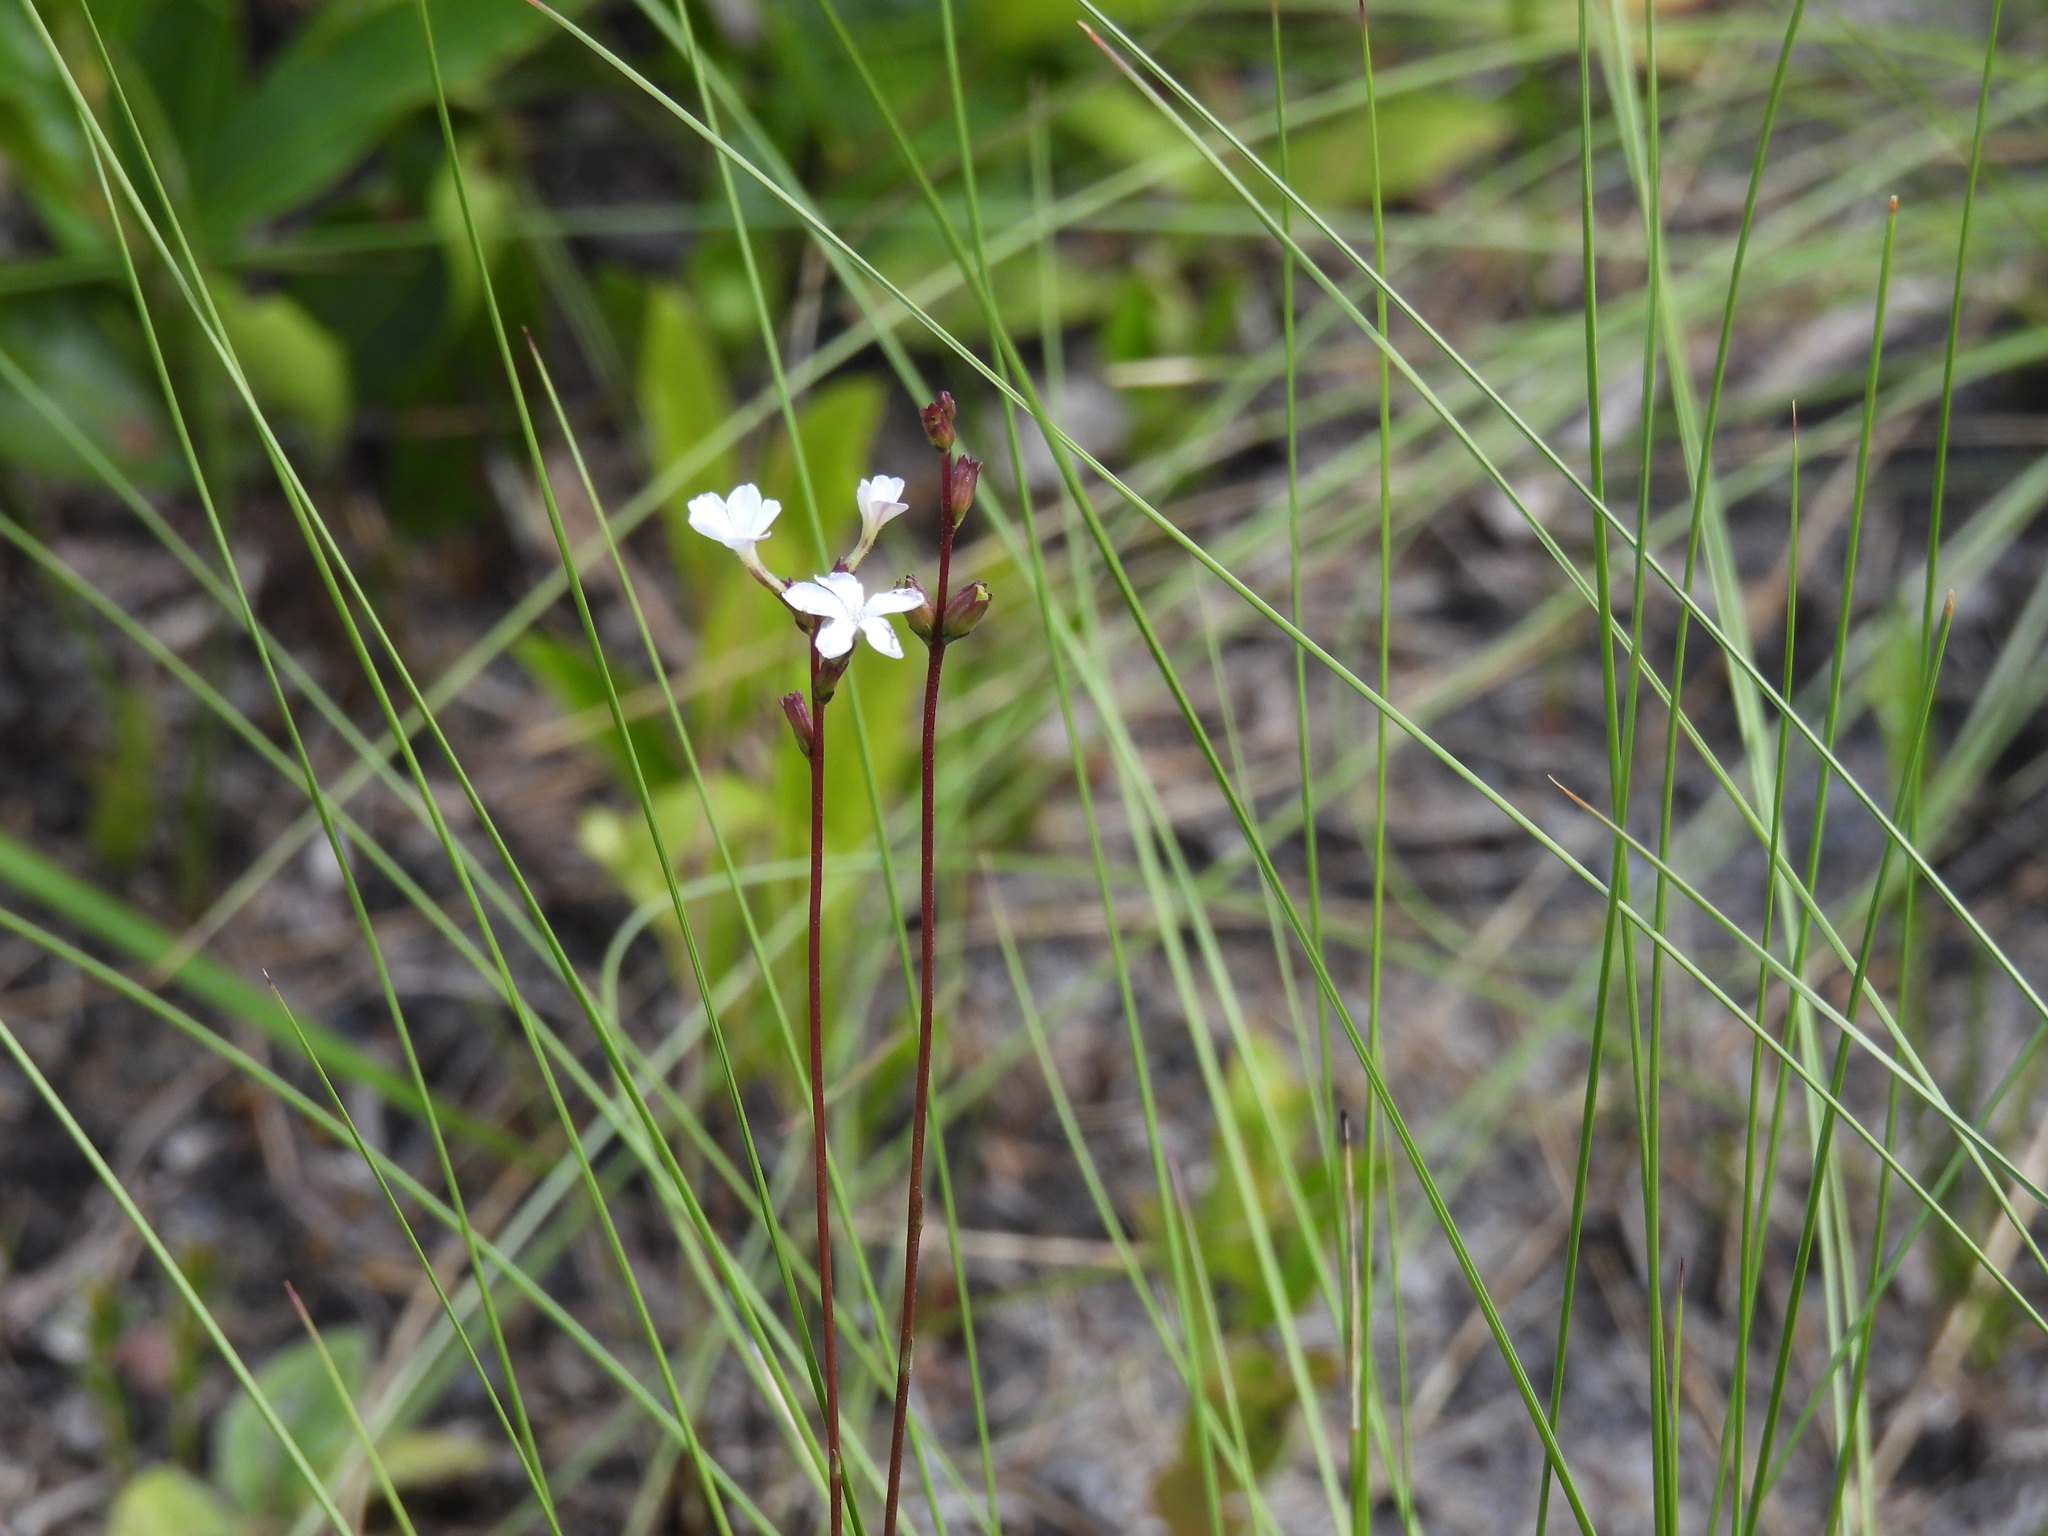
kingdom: Plantae
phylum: Tracheophyta
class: Magnoliopsida
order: Lamiales
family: Orobanchaceae
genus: Buchnera
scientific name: Buchnera floridana
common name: Florida bluehearts
